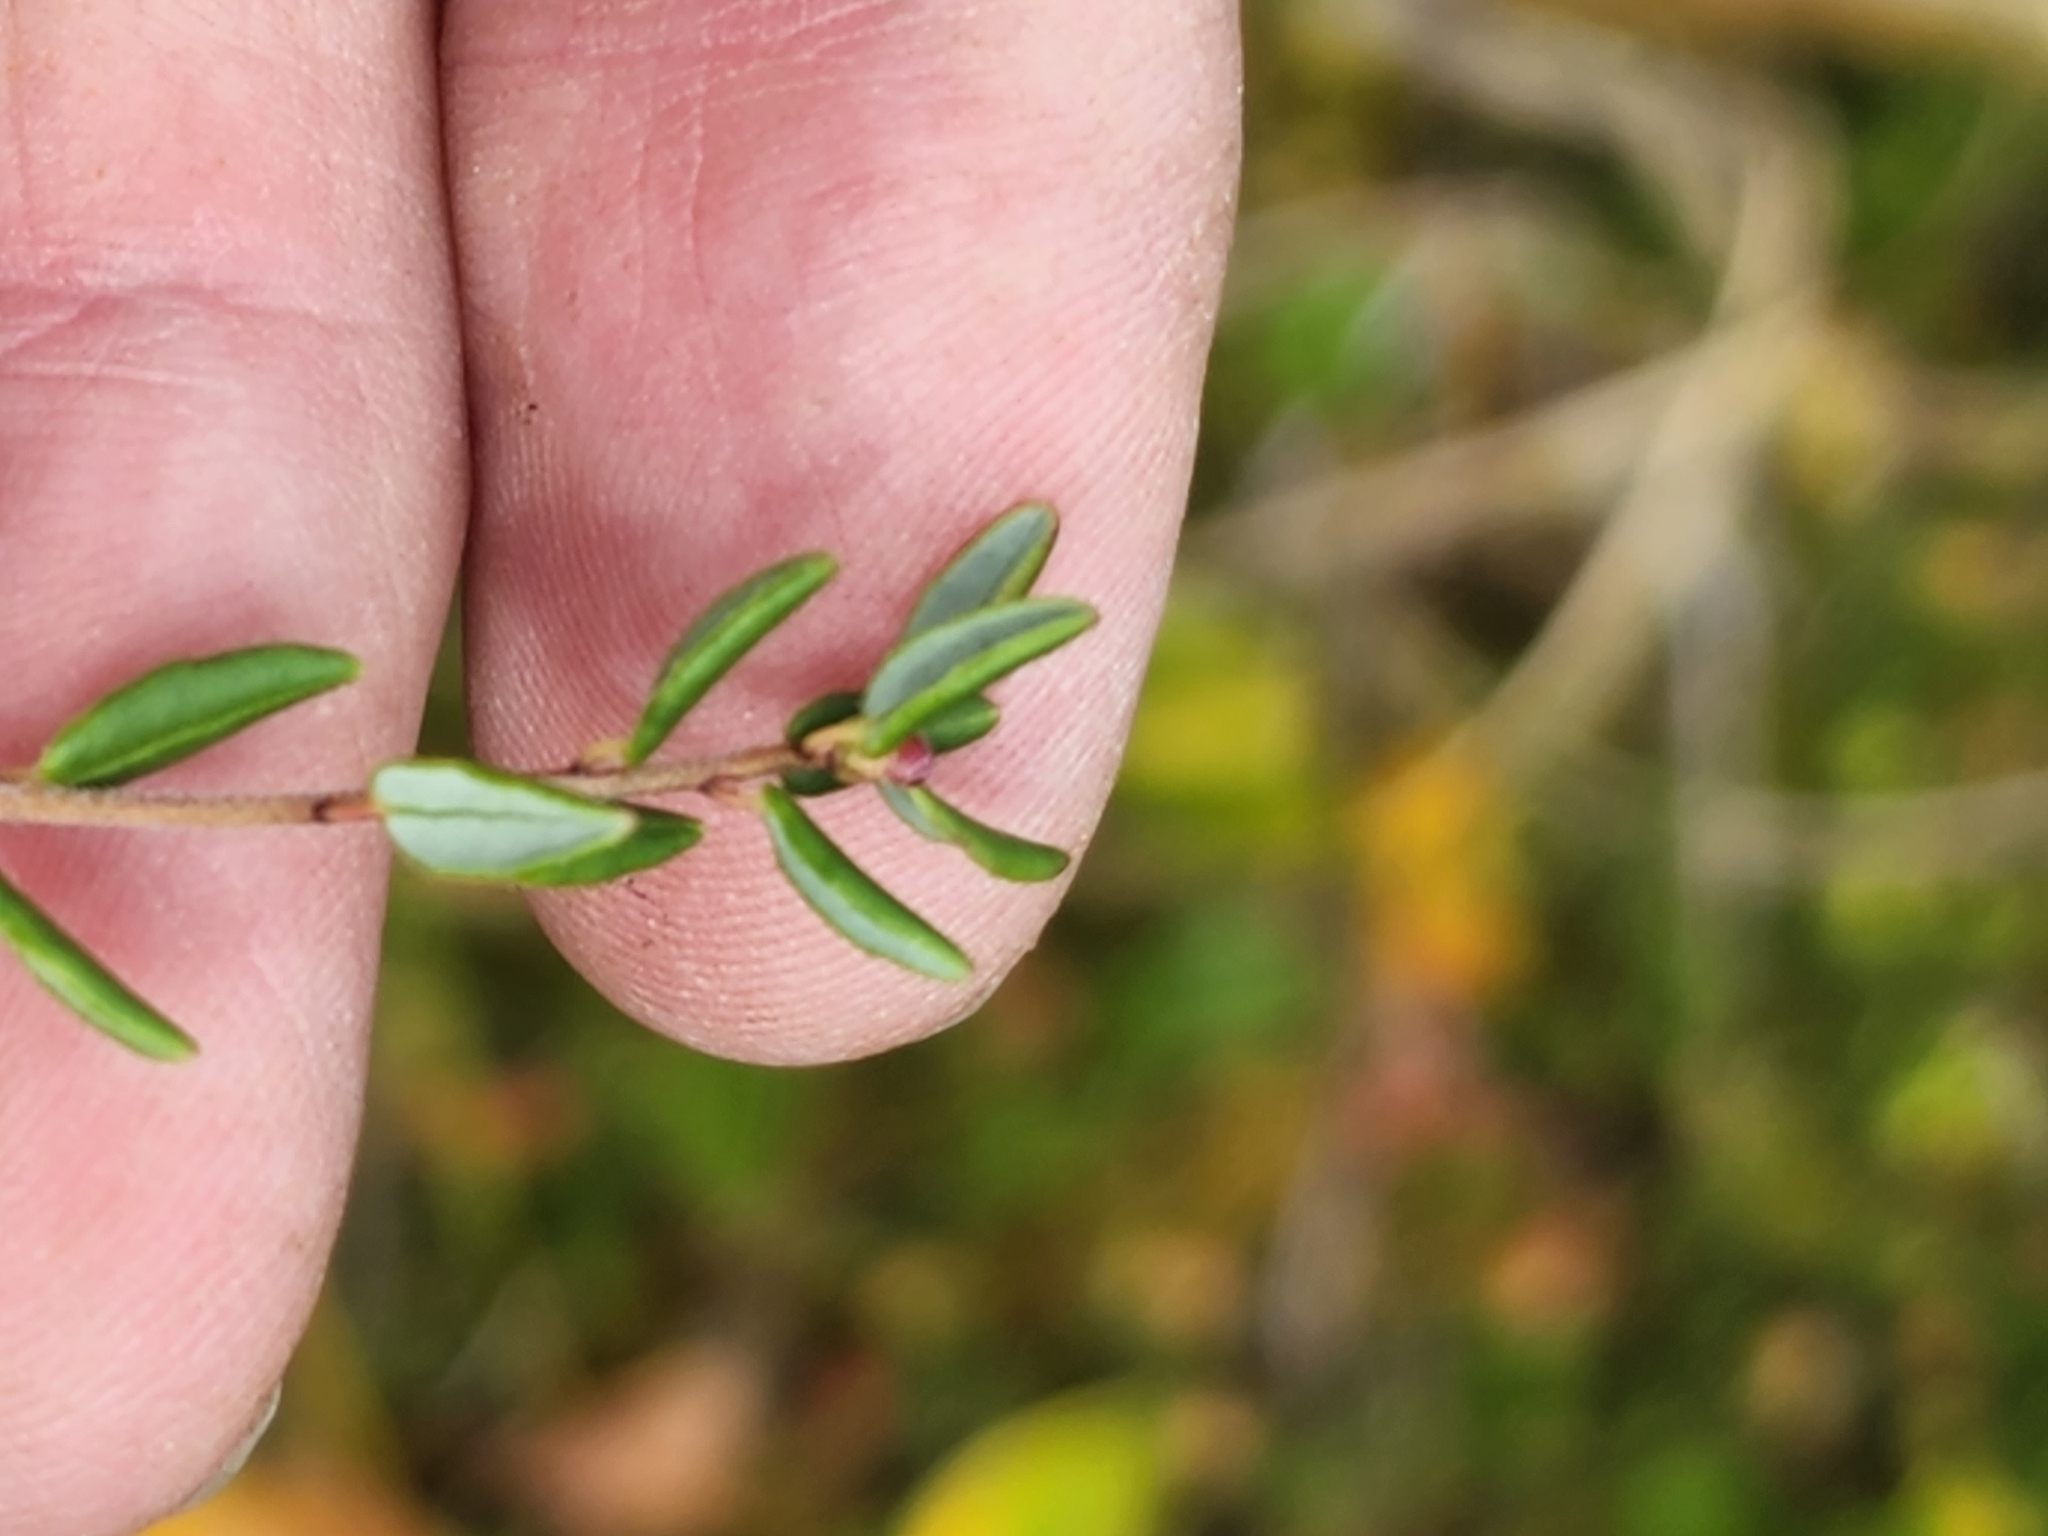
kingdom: Plantae
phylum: Tracheophyta
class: Magnoliopsida
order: Ericales
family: Ericaceae
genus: Vaccinium
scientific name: Vaccinium oxycoccos
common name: Cranberry
